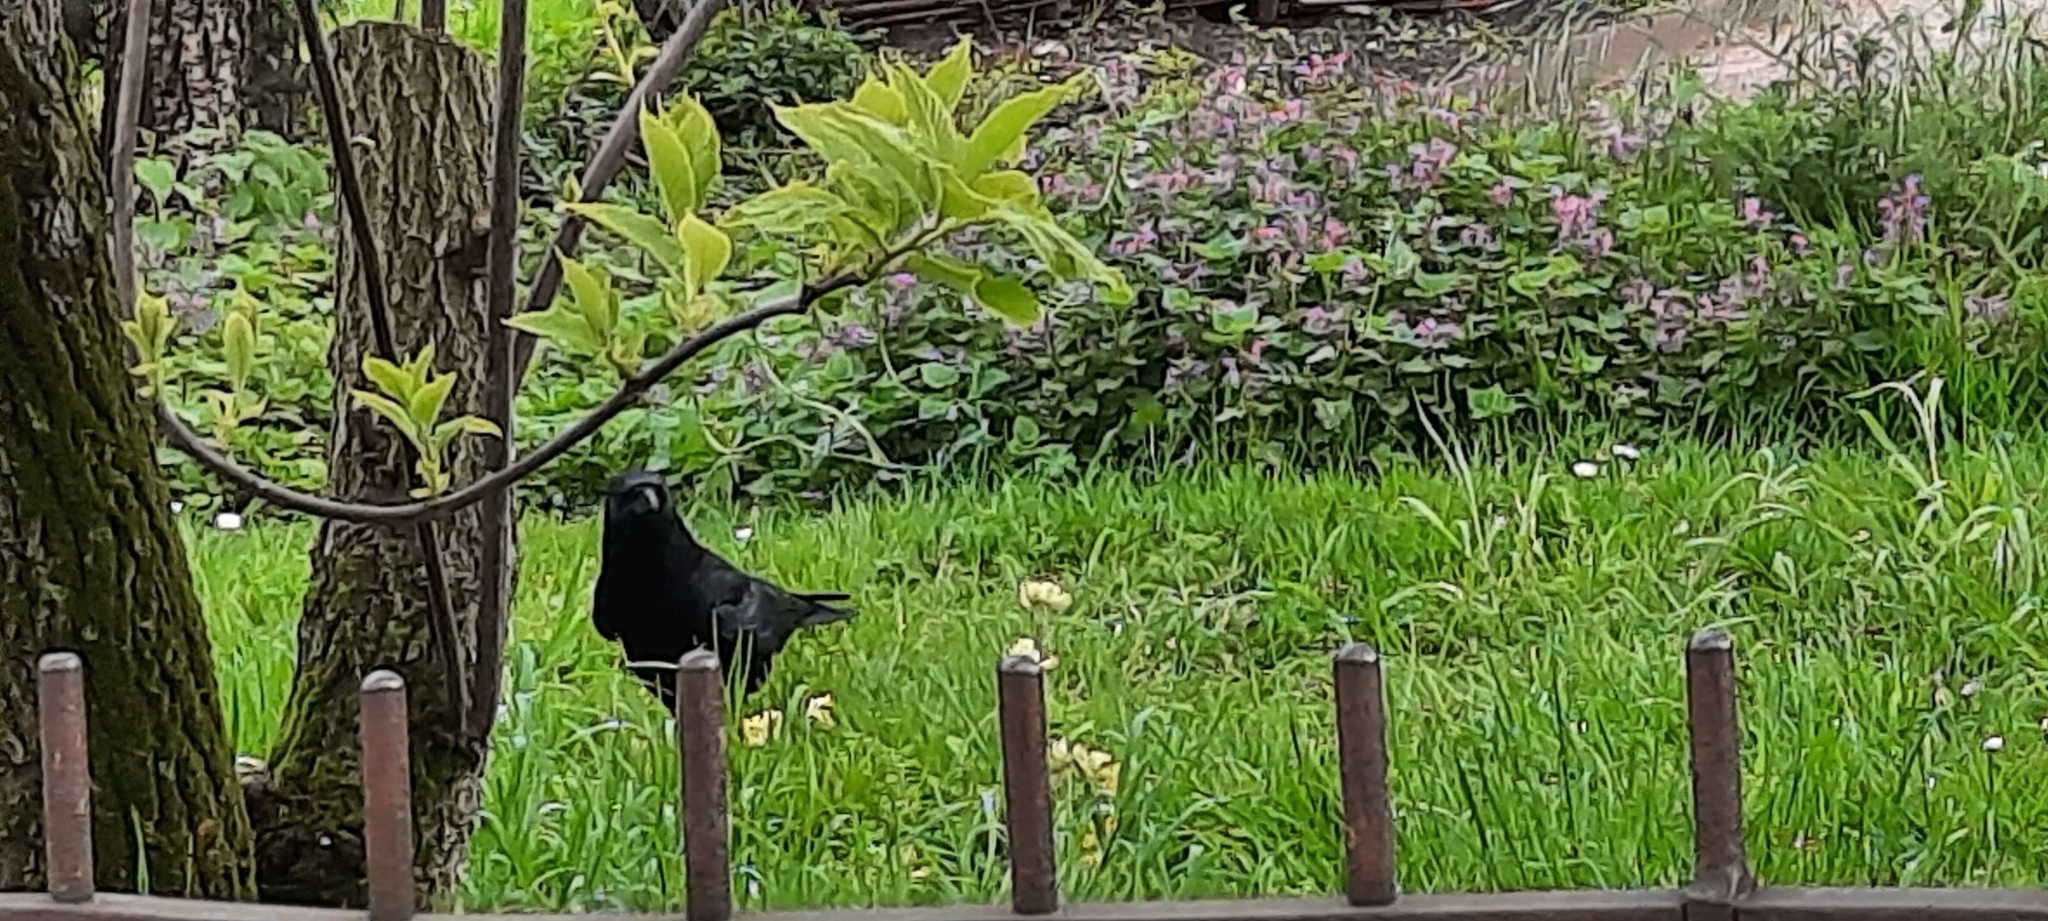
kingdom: Animalia
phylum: Chordata
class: Aves
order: Passeriformes
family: Corvidae
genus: Corvus
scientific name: Corvus corone
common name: Carrion crow
